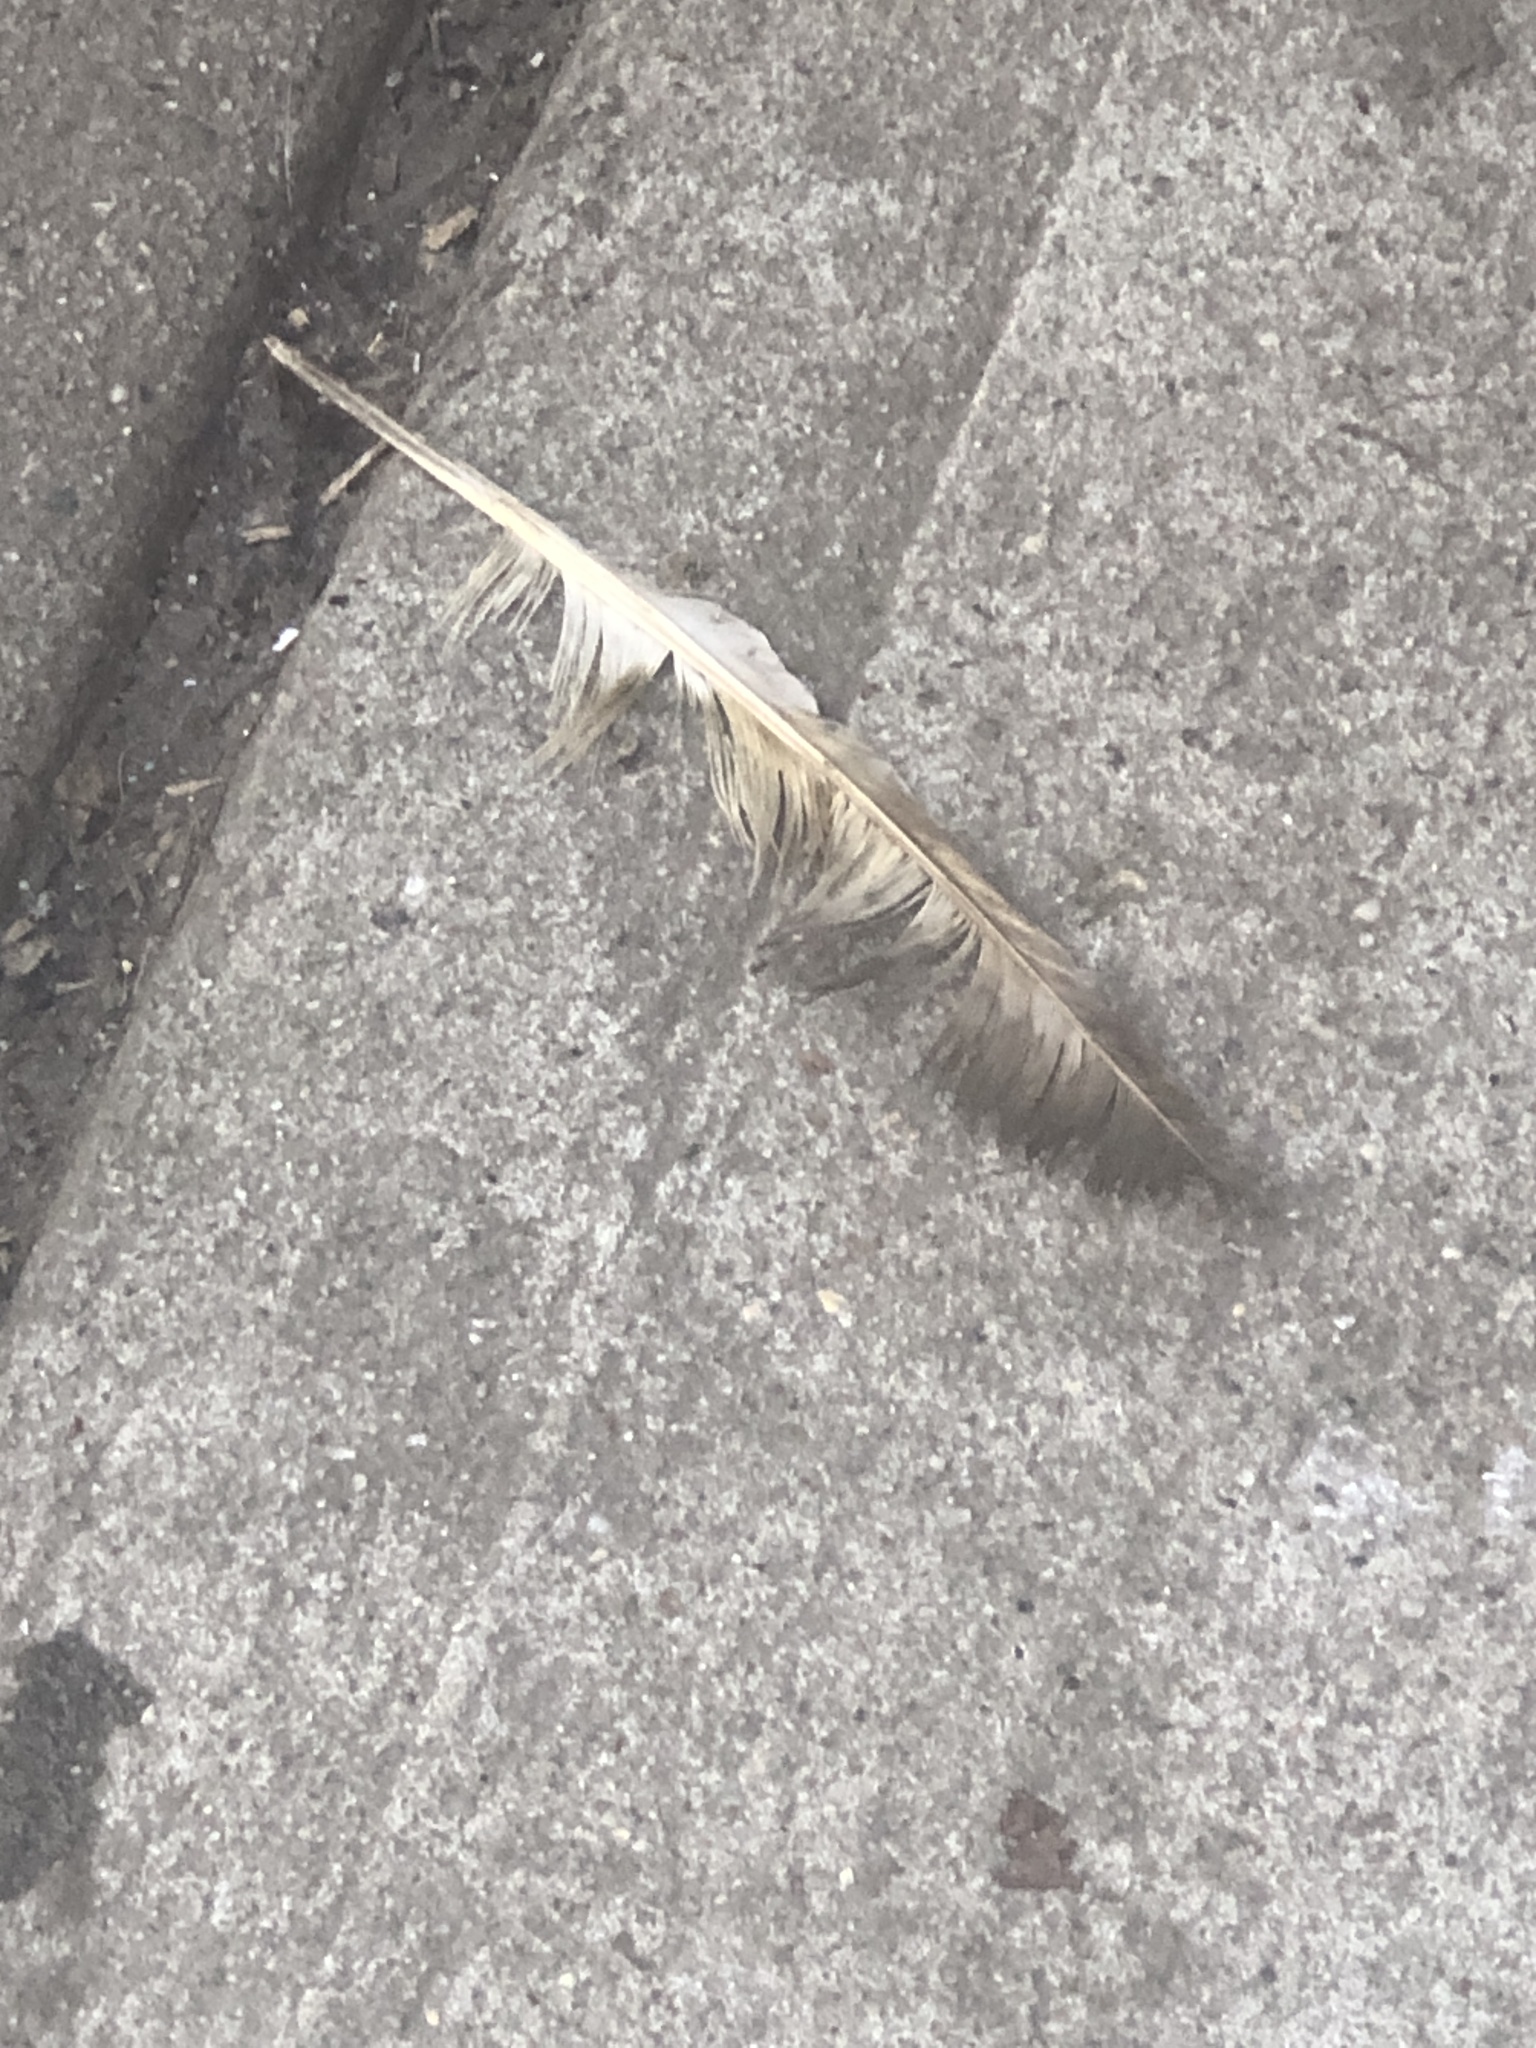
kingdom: Animalia
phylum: Chordata
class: Aves
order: Columbiformes
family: Columbidae
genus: Columba
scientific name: Columba livia
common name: Rock pigeon
